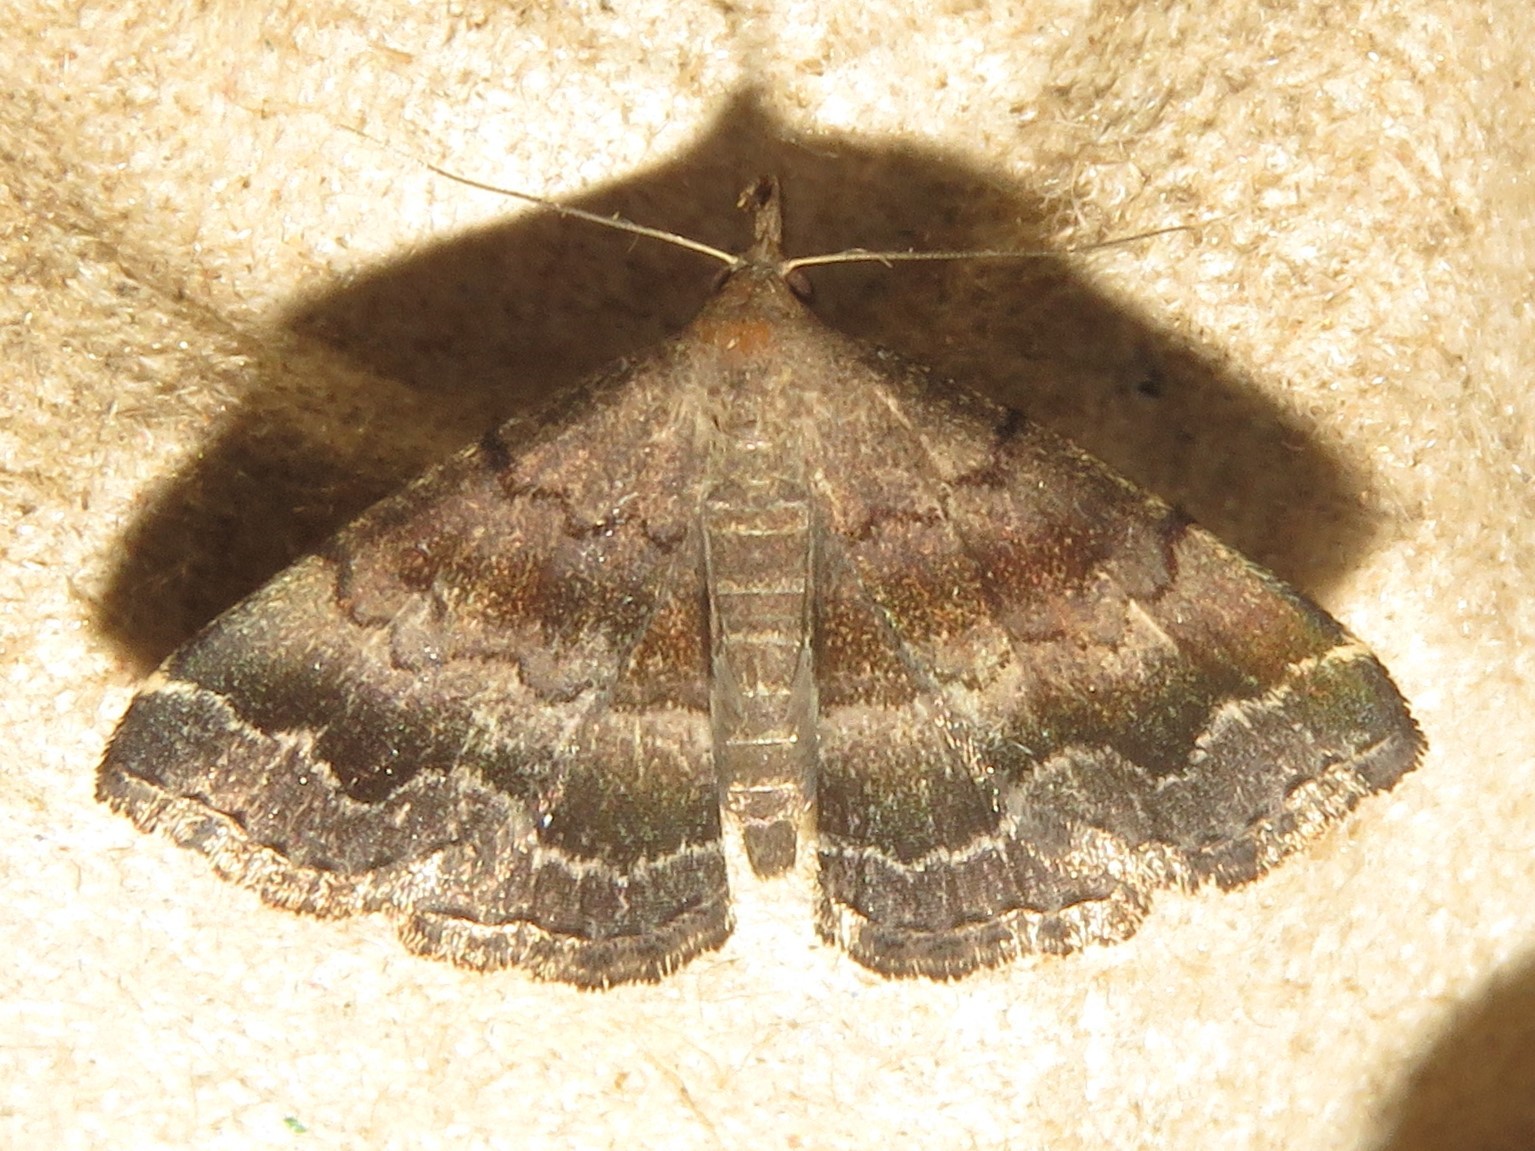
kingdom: Animalia
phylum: Arthropoda
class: Insecta
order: Lepidoptera
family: Erebidae
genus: Phalaenostola
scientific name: Phalaenostola larentioides
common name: Black-banded owlet
